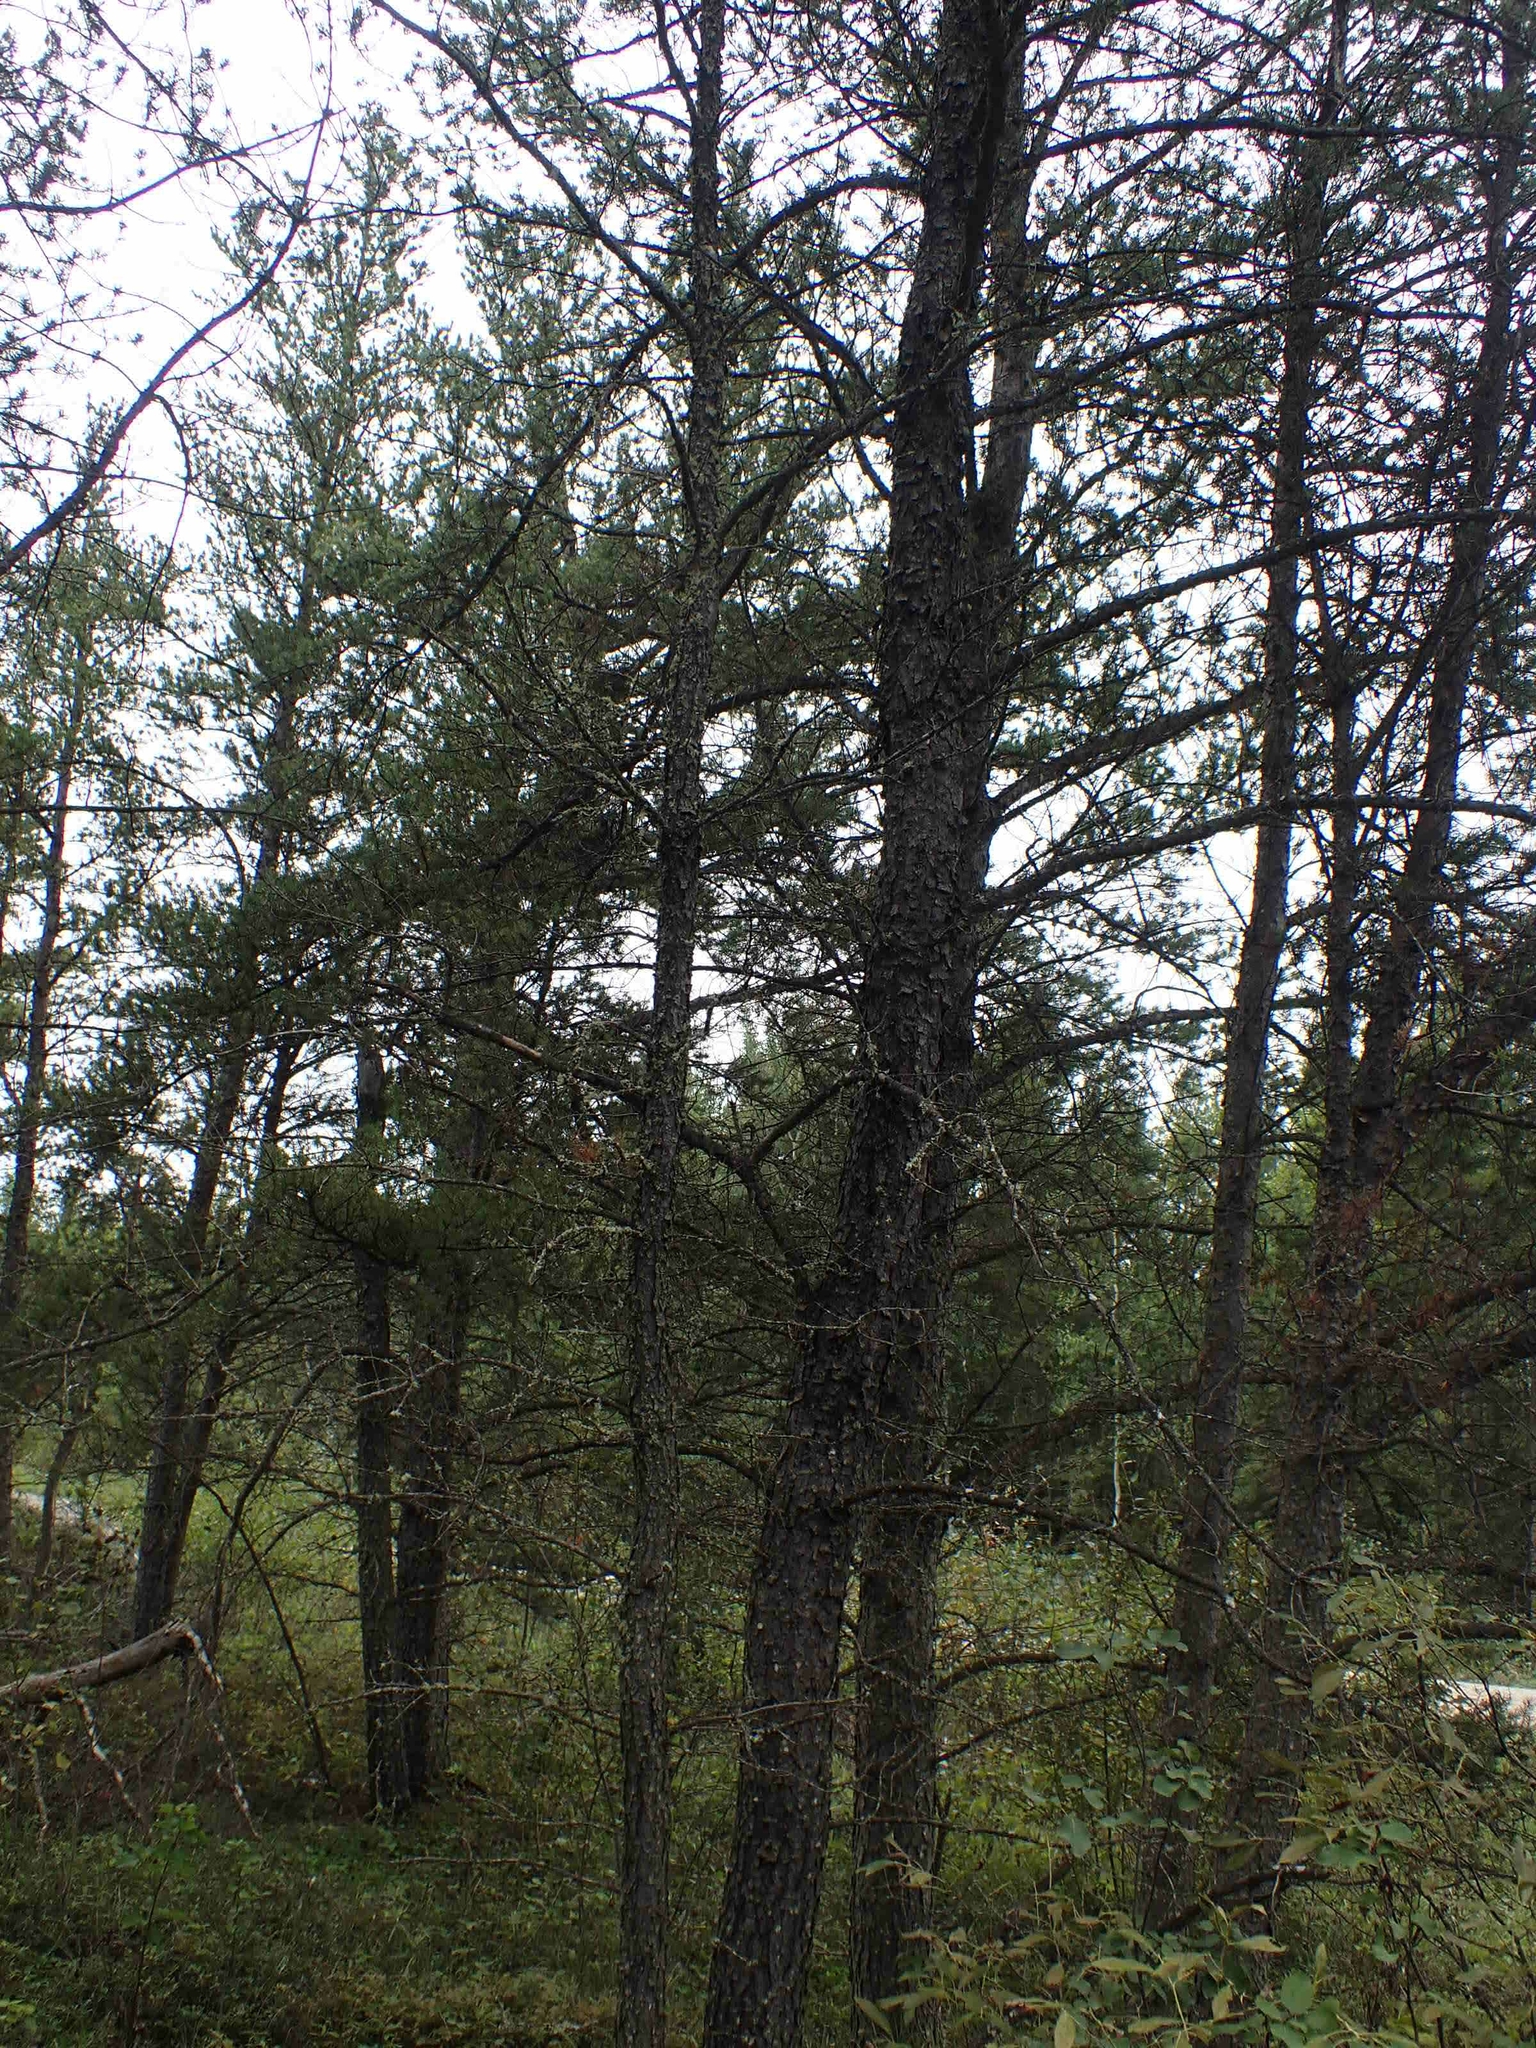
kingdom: Plantae
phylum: Tracheophyta
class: Pinopsida
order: Pinales
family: Pinaceae
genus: Pinus
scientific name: Pinus banksiana
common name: Jack pine
